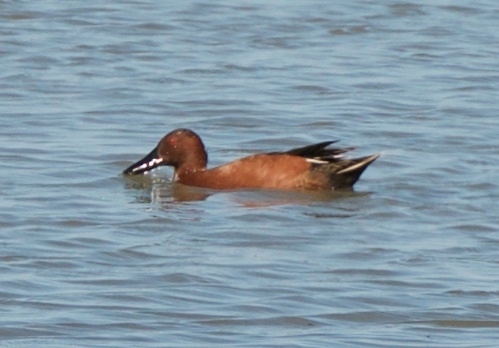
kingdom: Animalia
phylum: Chordata
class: Aves
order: Anseriformes
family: Anatidae
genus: Spatula
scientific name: Spatula cyanoptera
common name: Cinnamon teal
